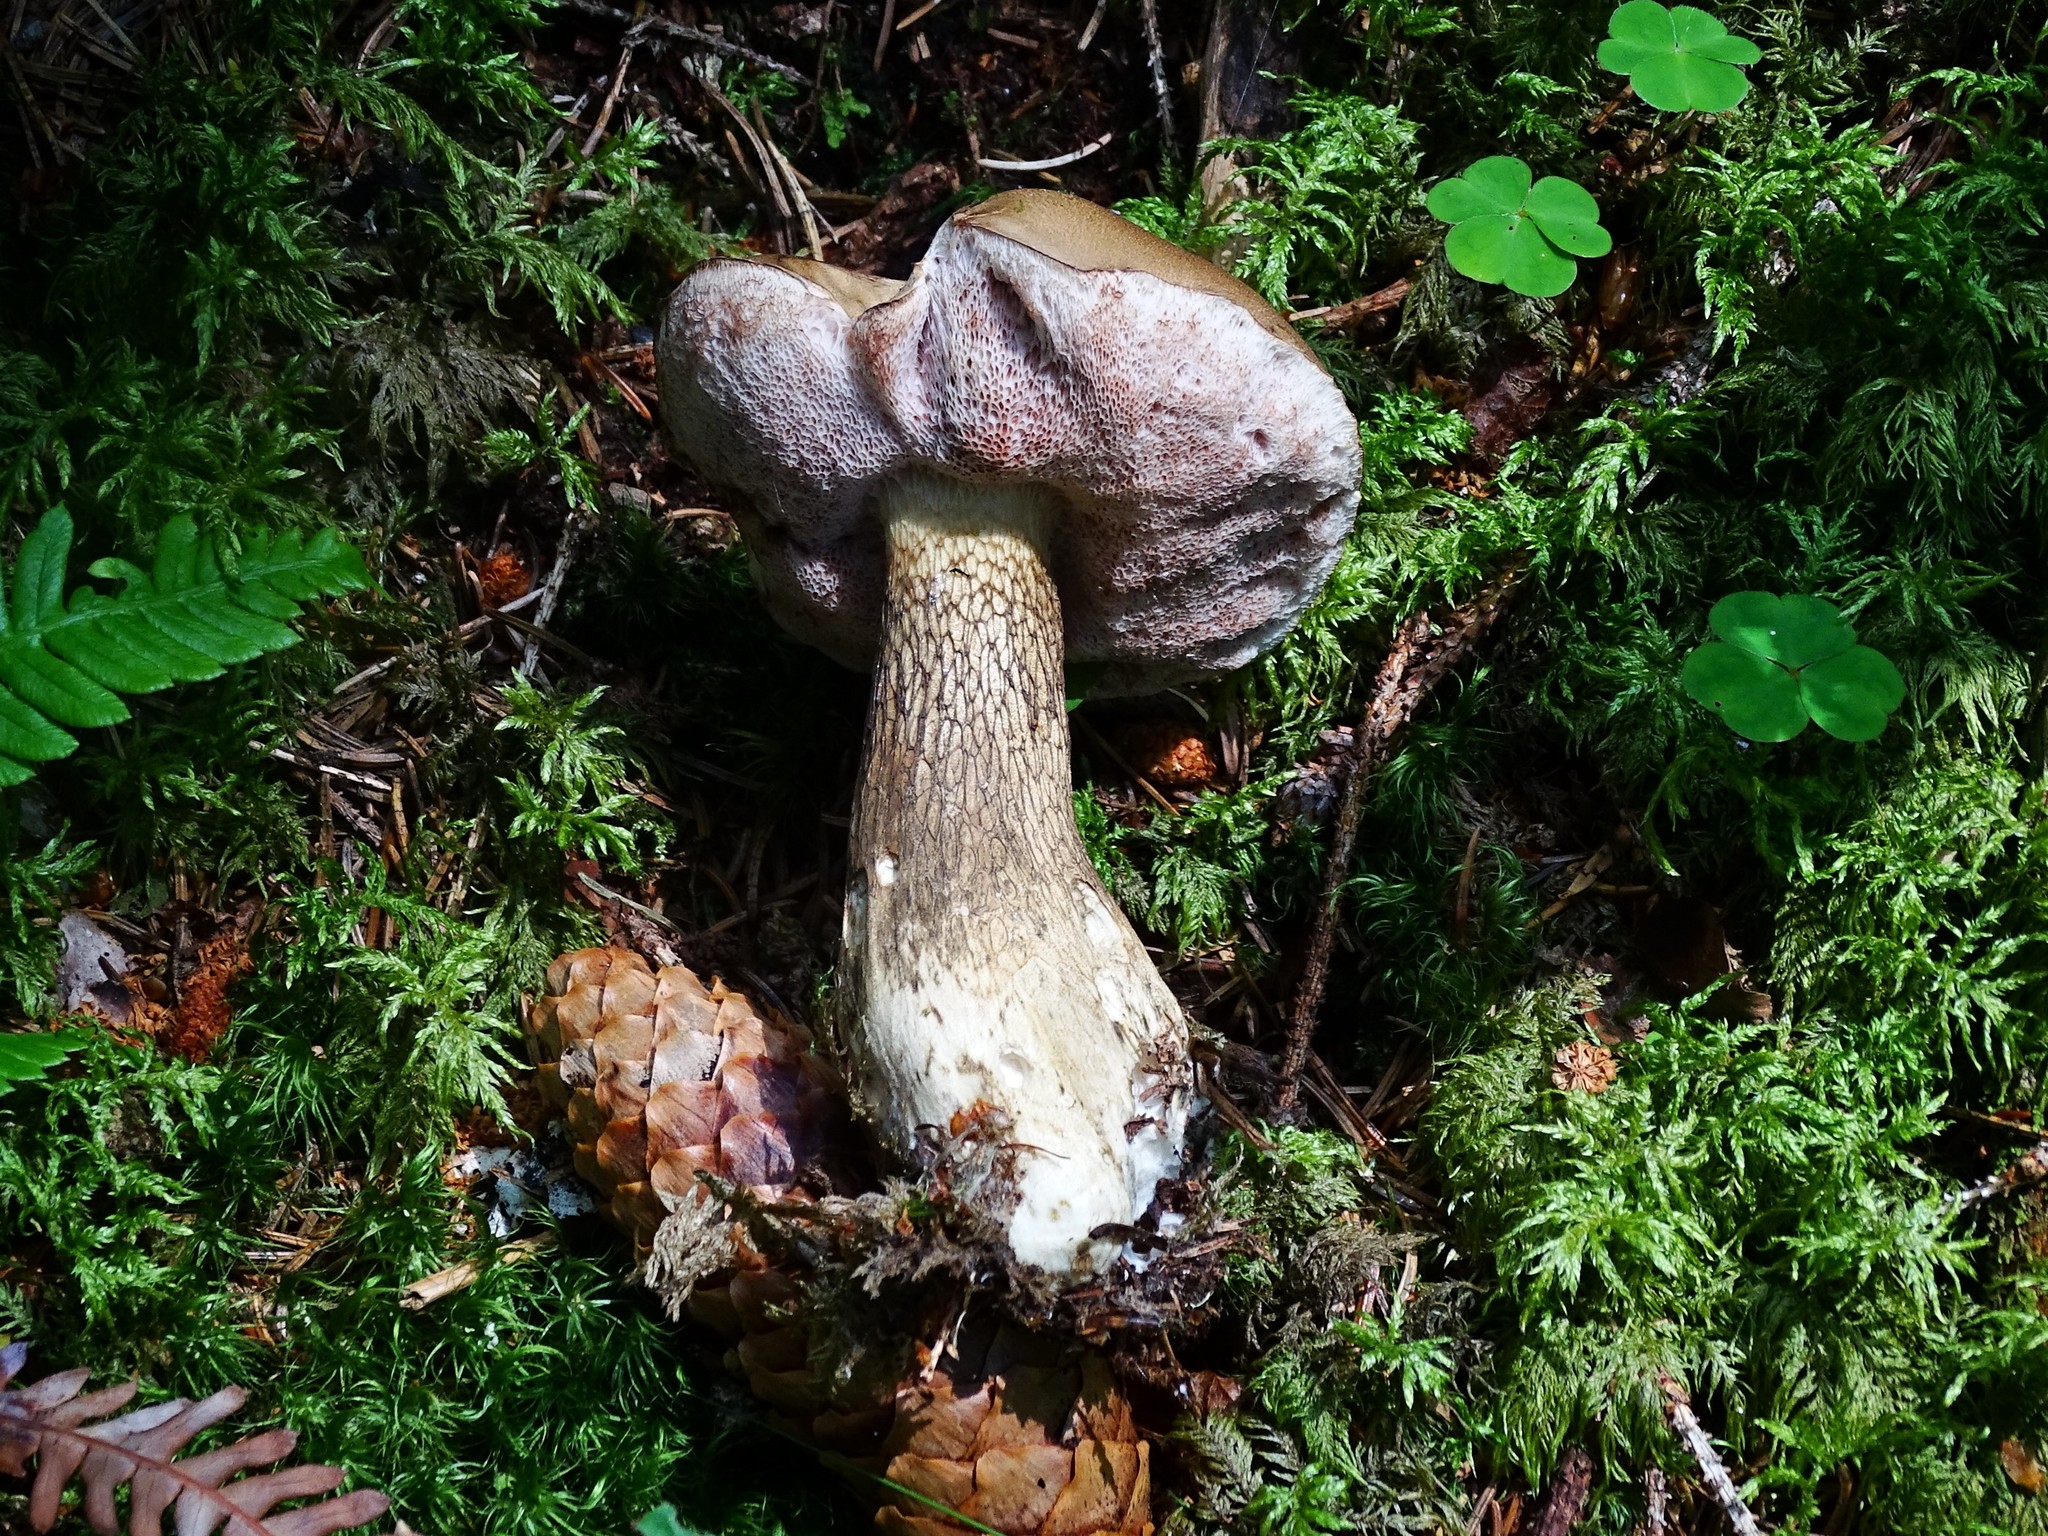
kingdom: Fungi
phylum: Basidiomycota
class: Agaricomycetes
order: Boletales
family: Boletaceae
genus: Tylopilus
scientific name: Tylopilus felleus
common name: Bitter bolete
